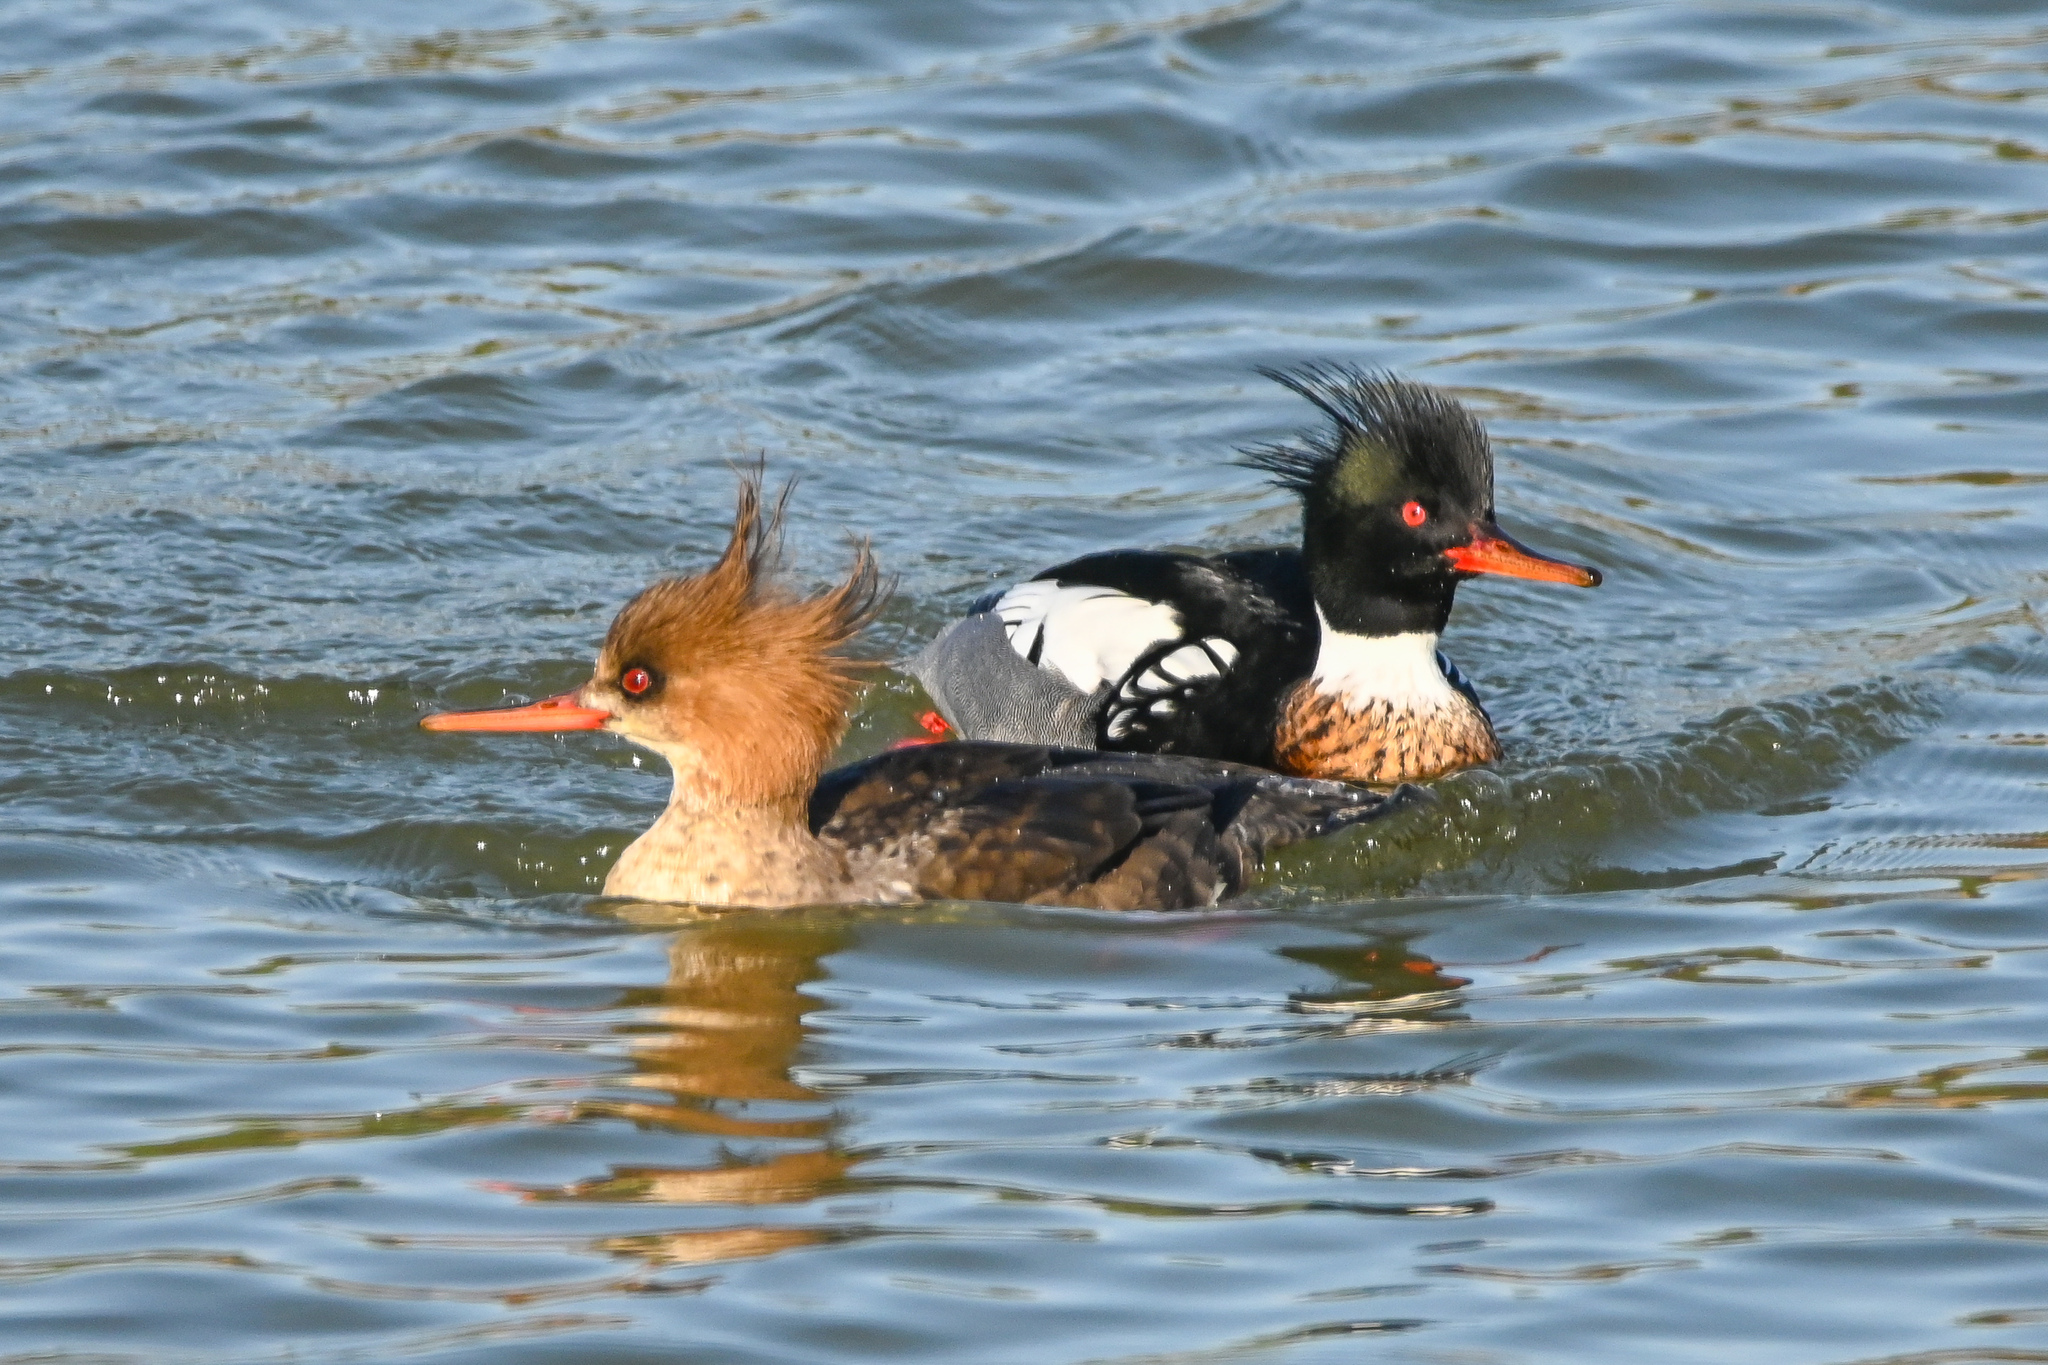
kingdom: Animalia
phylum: Chordata
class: Aves
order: Anseriformes
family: Anatidae
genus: Mergus
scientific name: Mergus serrator
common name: Red-breasted merganser
